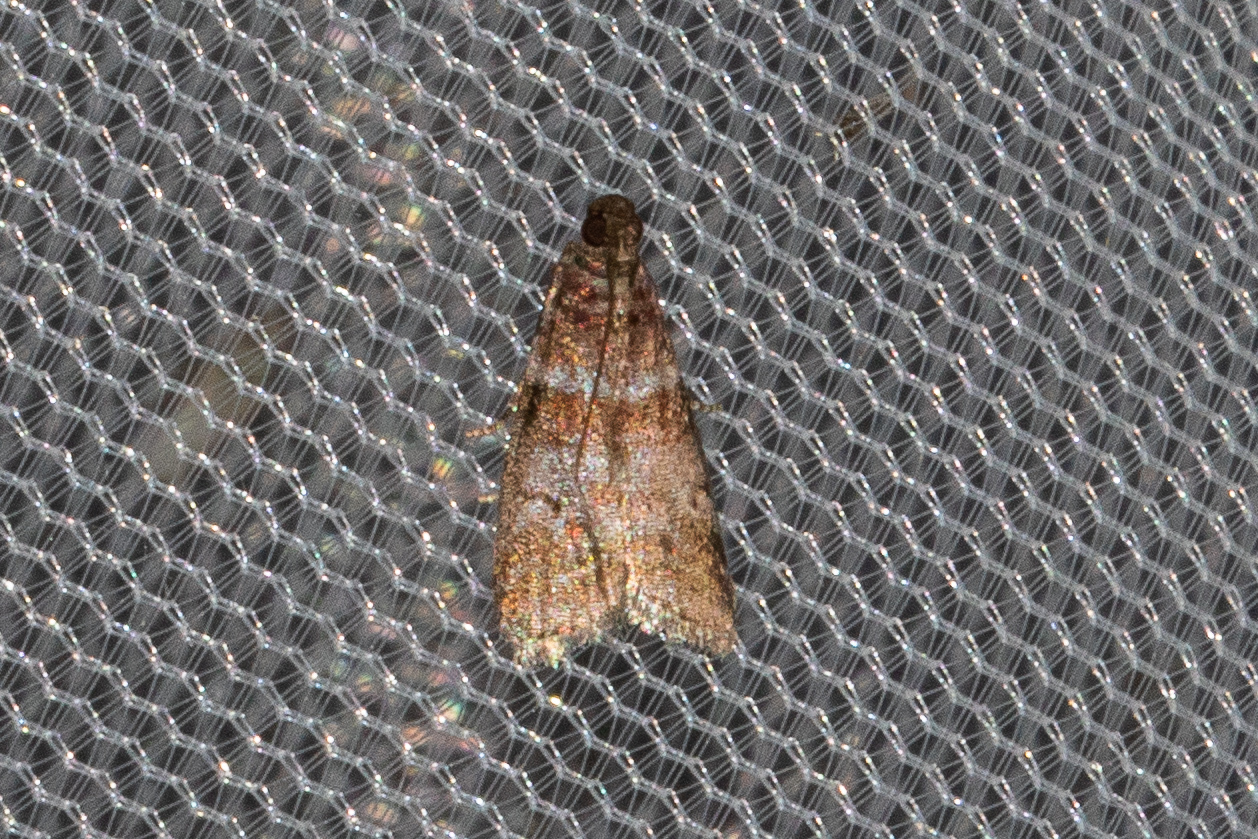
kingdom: Animalia
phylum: Arthropoda
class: Insecta
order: Lepidoptera
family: Pyralidae
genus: Sciota
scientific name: Sciota uvinella
